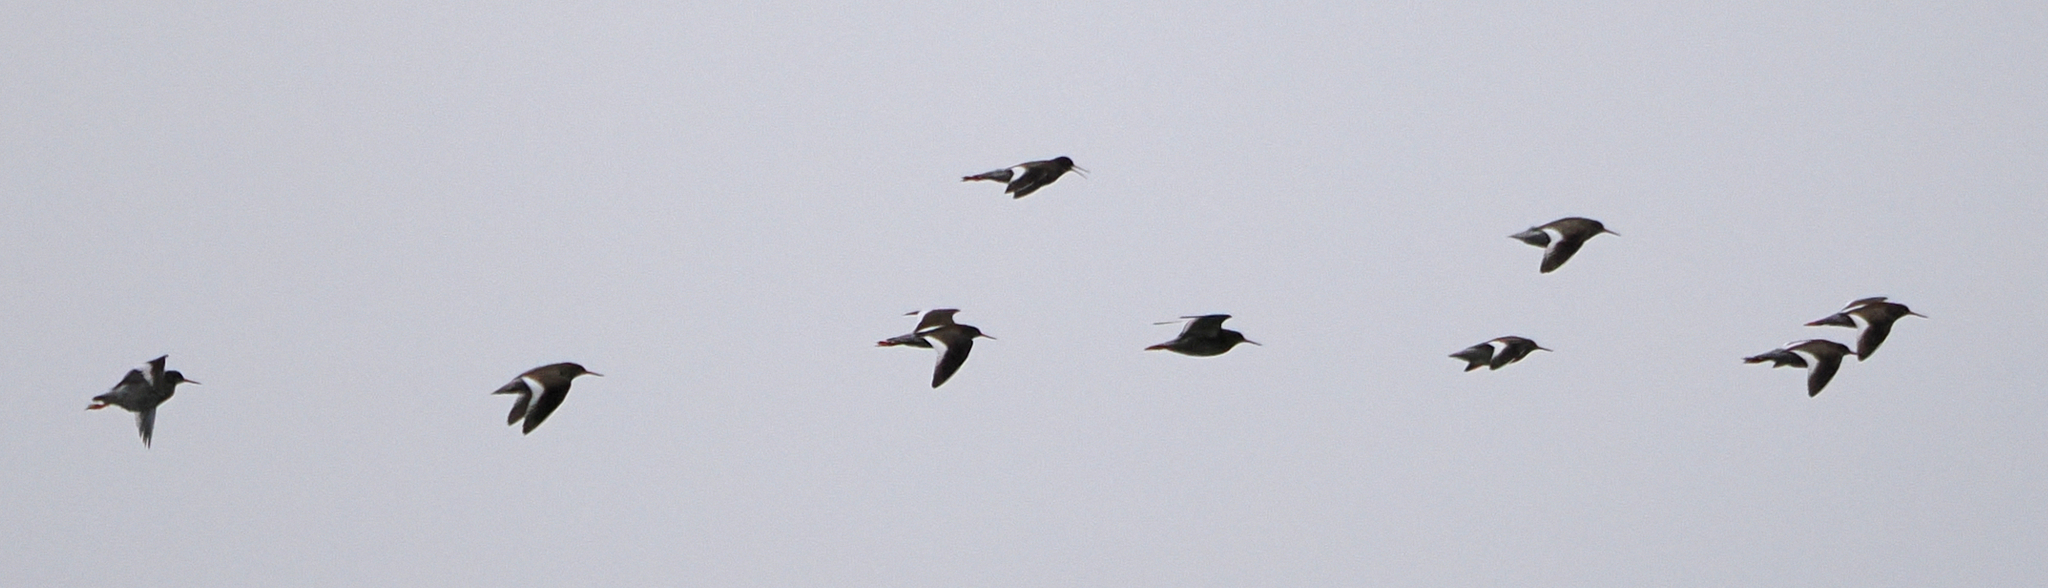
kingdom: Animalia
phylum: Chordata
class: Aves
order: Charadriiformes
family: Scolopacidae
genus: Tringa
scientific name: Tringa totanus
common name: Common redshank
